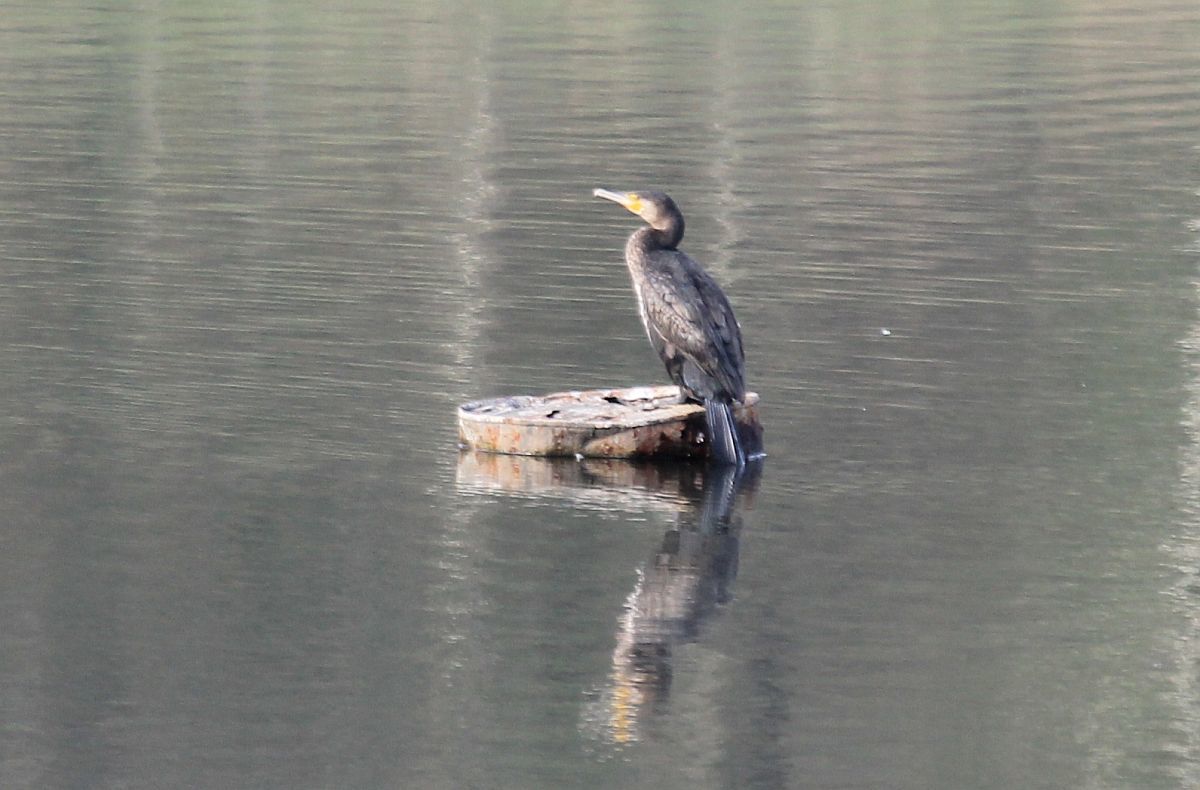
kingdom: Animalia
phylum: Chordata
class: Aves
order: Suliformes
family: Phalacrocoracidae
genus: Phalacrocorax
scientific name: Phalacrocorax carbo
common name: Great cormorant
